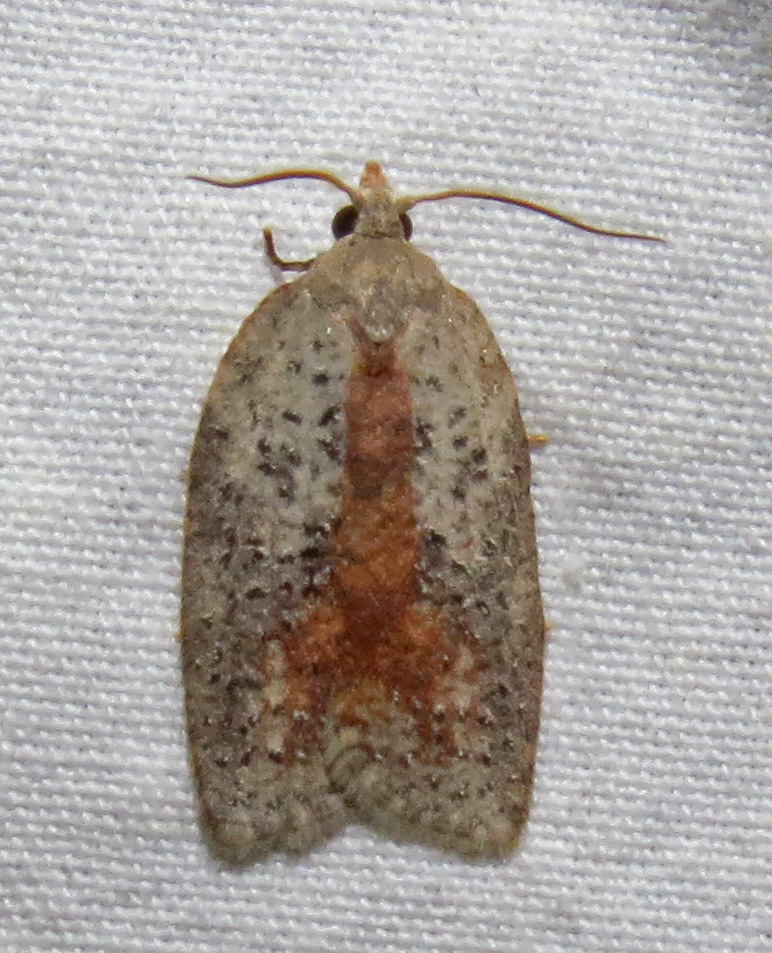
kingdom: Animalia
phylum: Arthropoda
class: Insecta
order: Lepidoptera
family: Tortricidae
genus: Amorbia
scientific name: Amorbia humerosana
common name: White-lined leafroller moth
